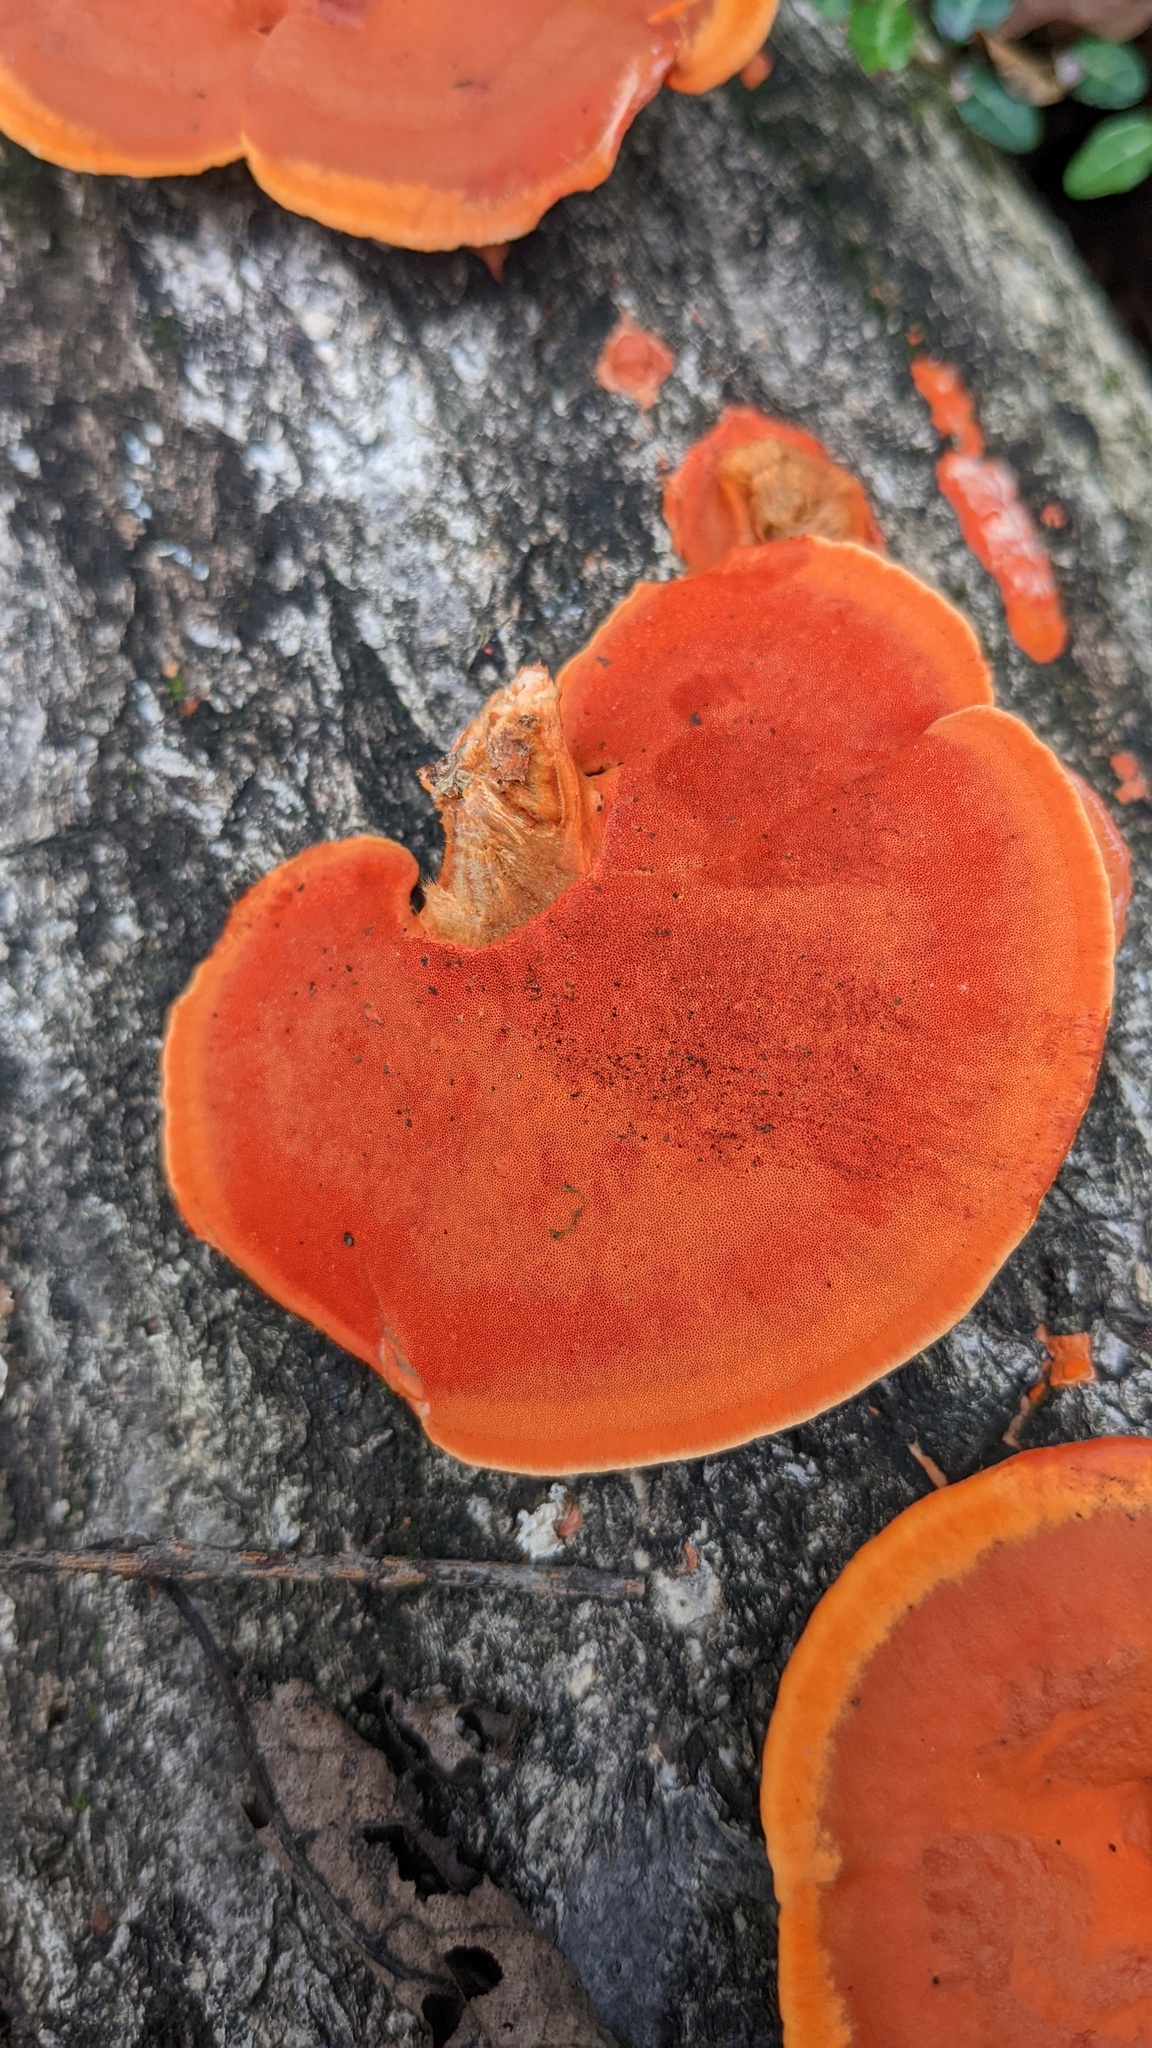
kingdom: Fungi
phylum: Basidiomycota
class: Agaricomycetes
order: Polyporales
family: Polyporaceae
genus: Trametes
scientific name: Trametes coccinea
